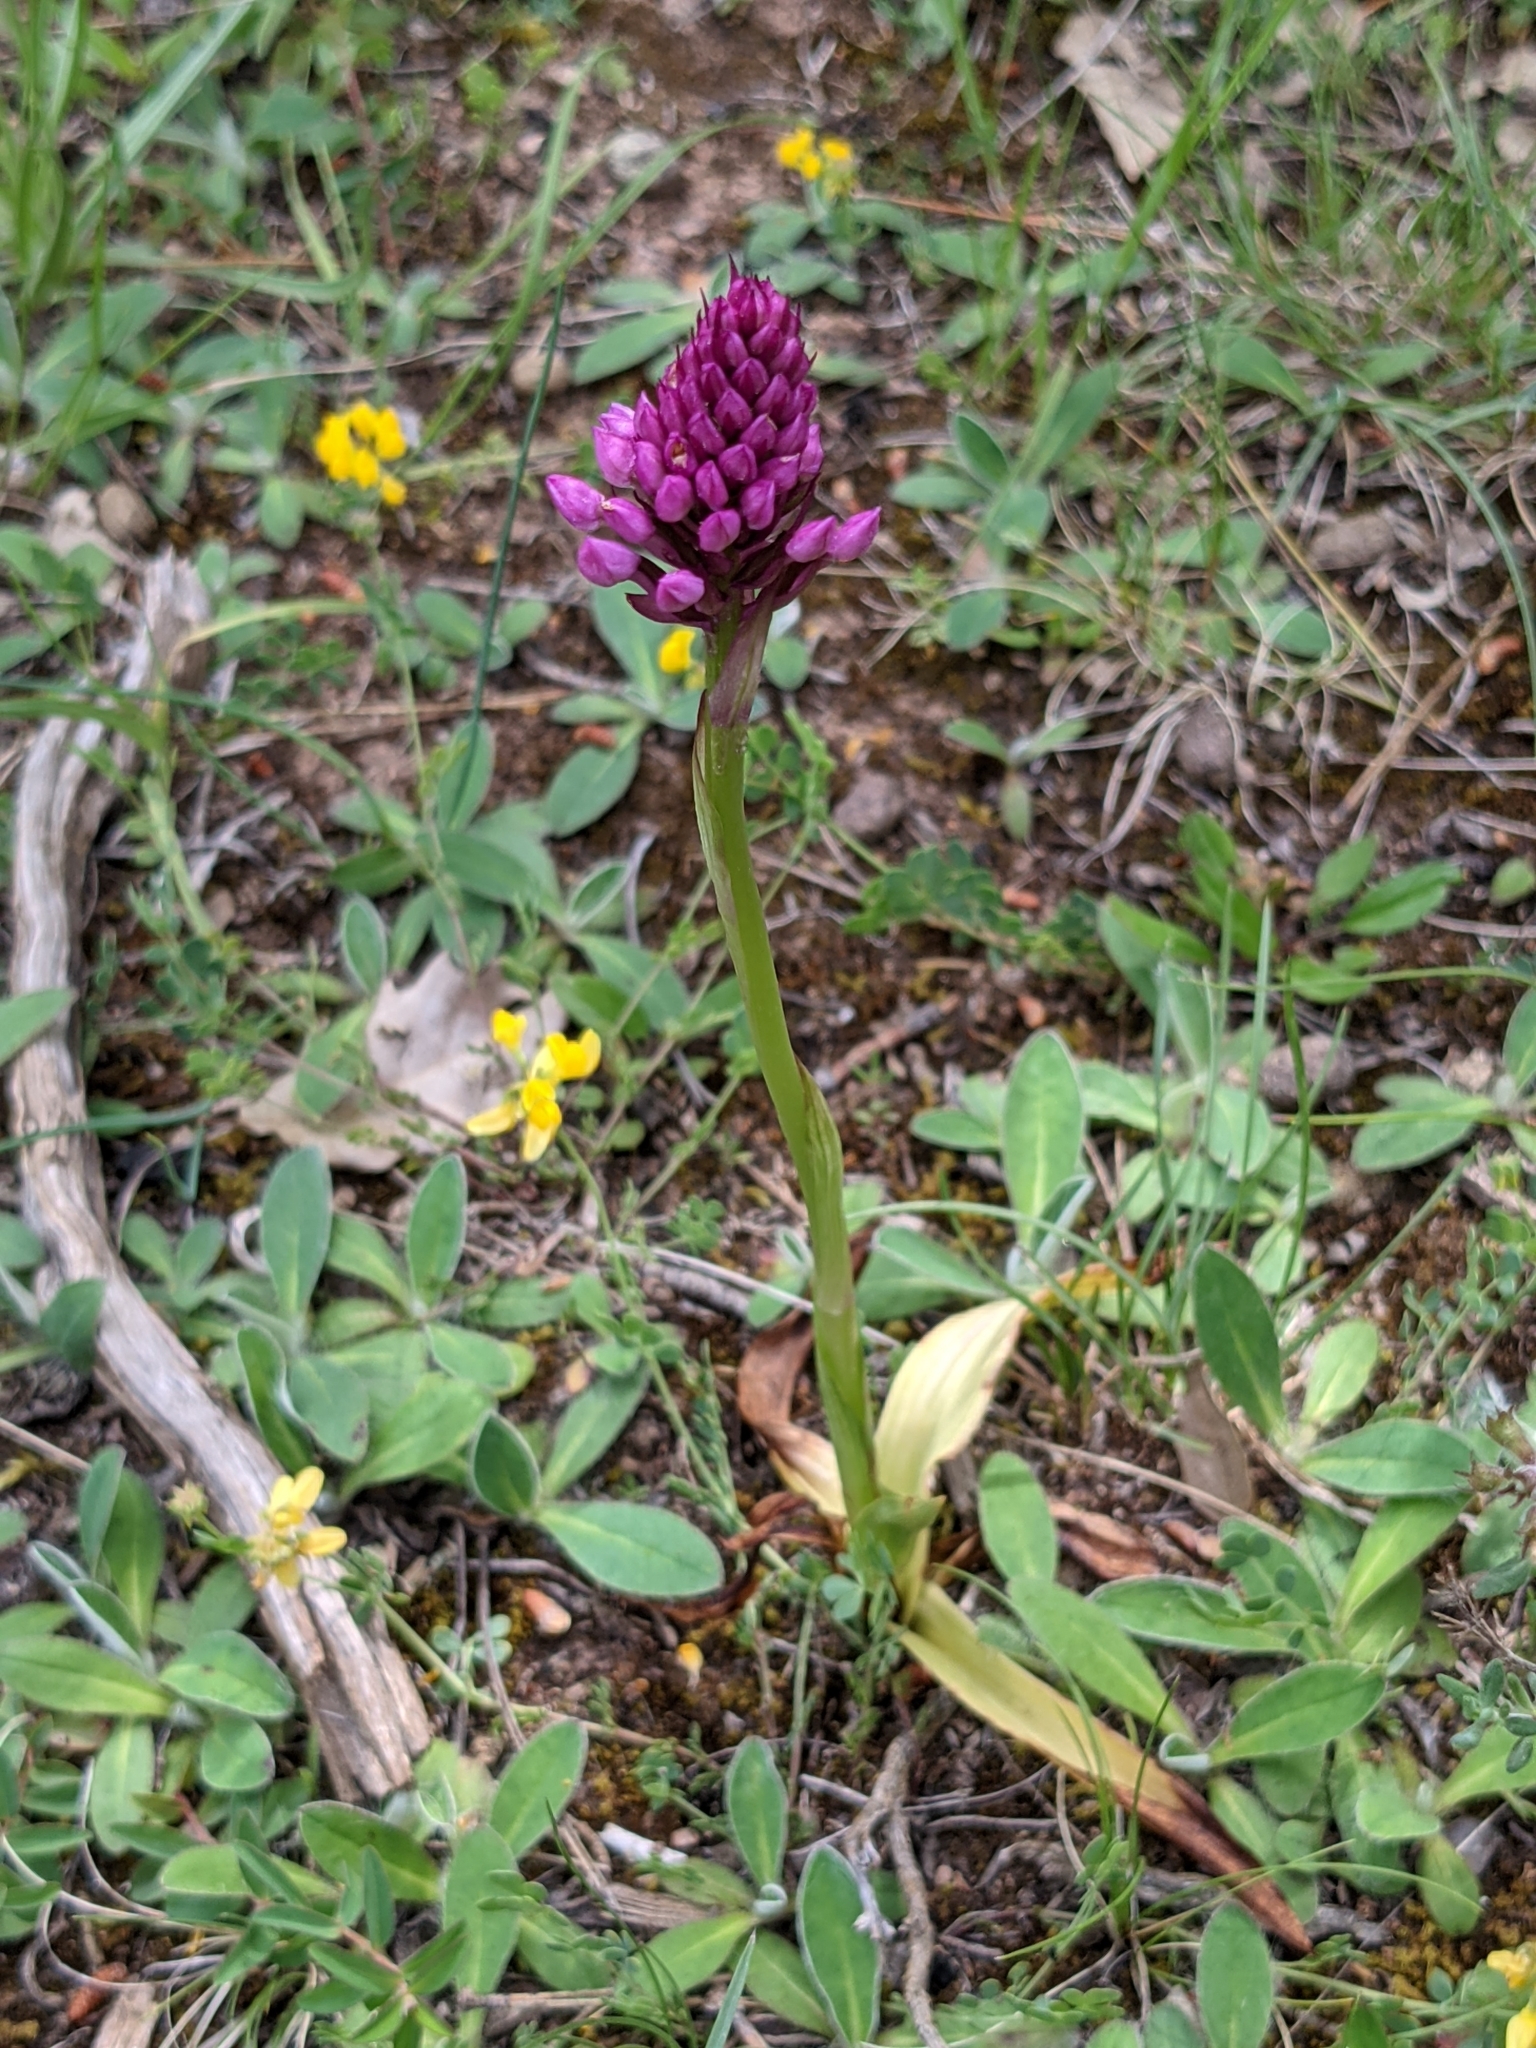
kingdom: Plantae
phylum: Tracheophyta
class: Liliopsida
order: Asparagales
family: Orchidaceae
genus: Anacamptis
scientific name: Anacamptis pyramidalis
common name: Pyramidal orchid
